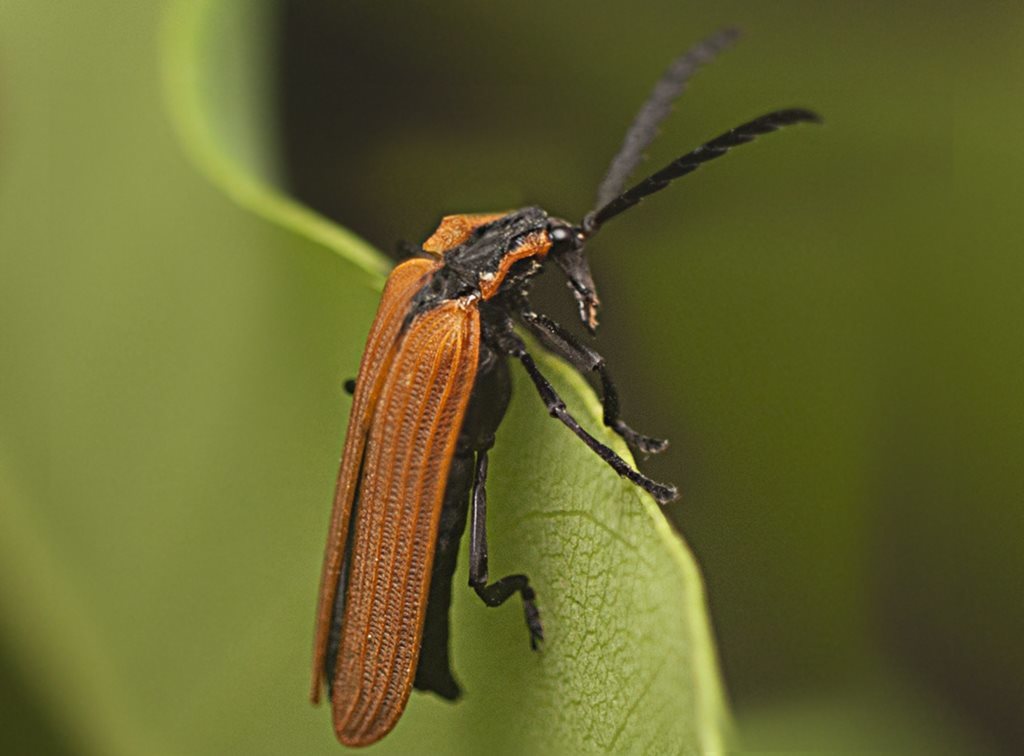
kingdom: Animalia
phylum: Arthropoda
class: Insecta
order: Coleoptera
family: Lycidae
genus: Porrostoma
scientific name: Porrostoma
